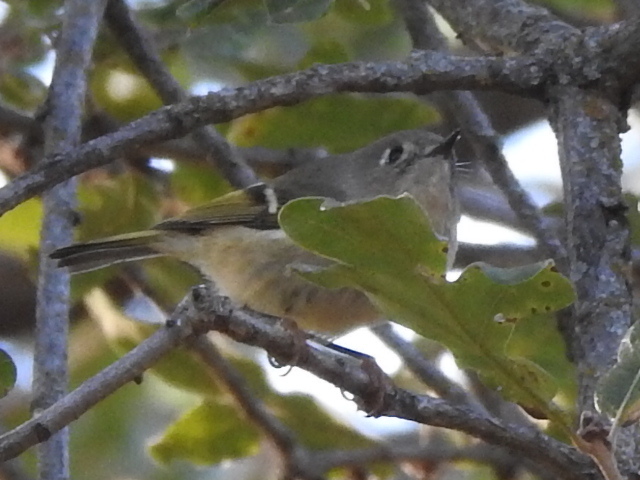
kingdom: Animalia
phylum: Chordata
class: Aves
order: Passeriformes
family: Regulidae
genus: Regulus
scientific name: Regulus calendula
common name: Ruby-crowned kinglet
